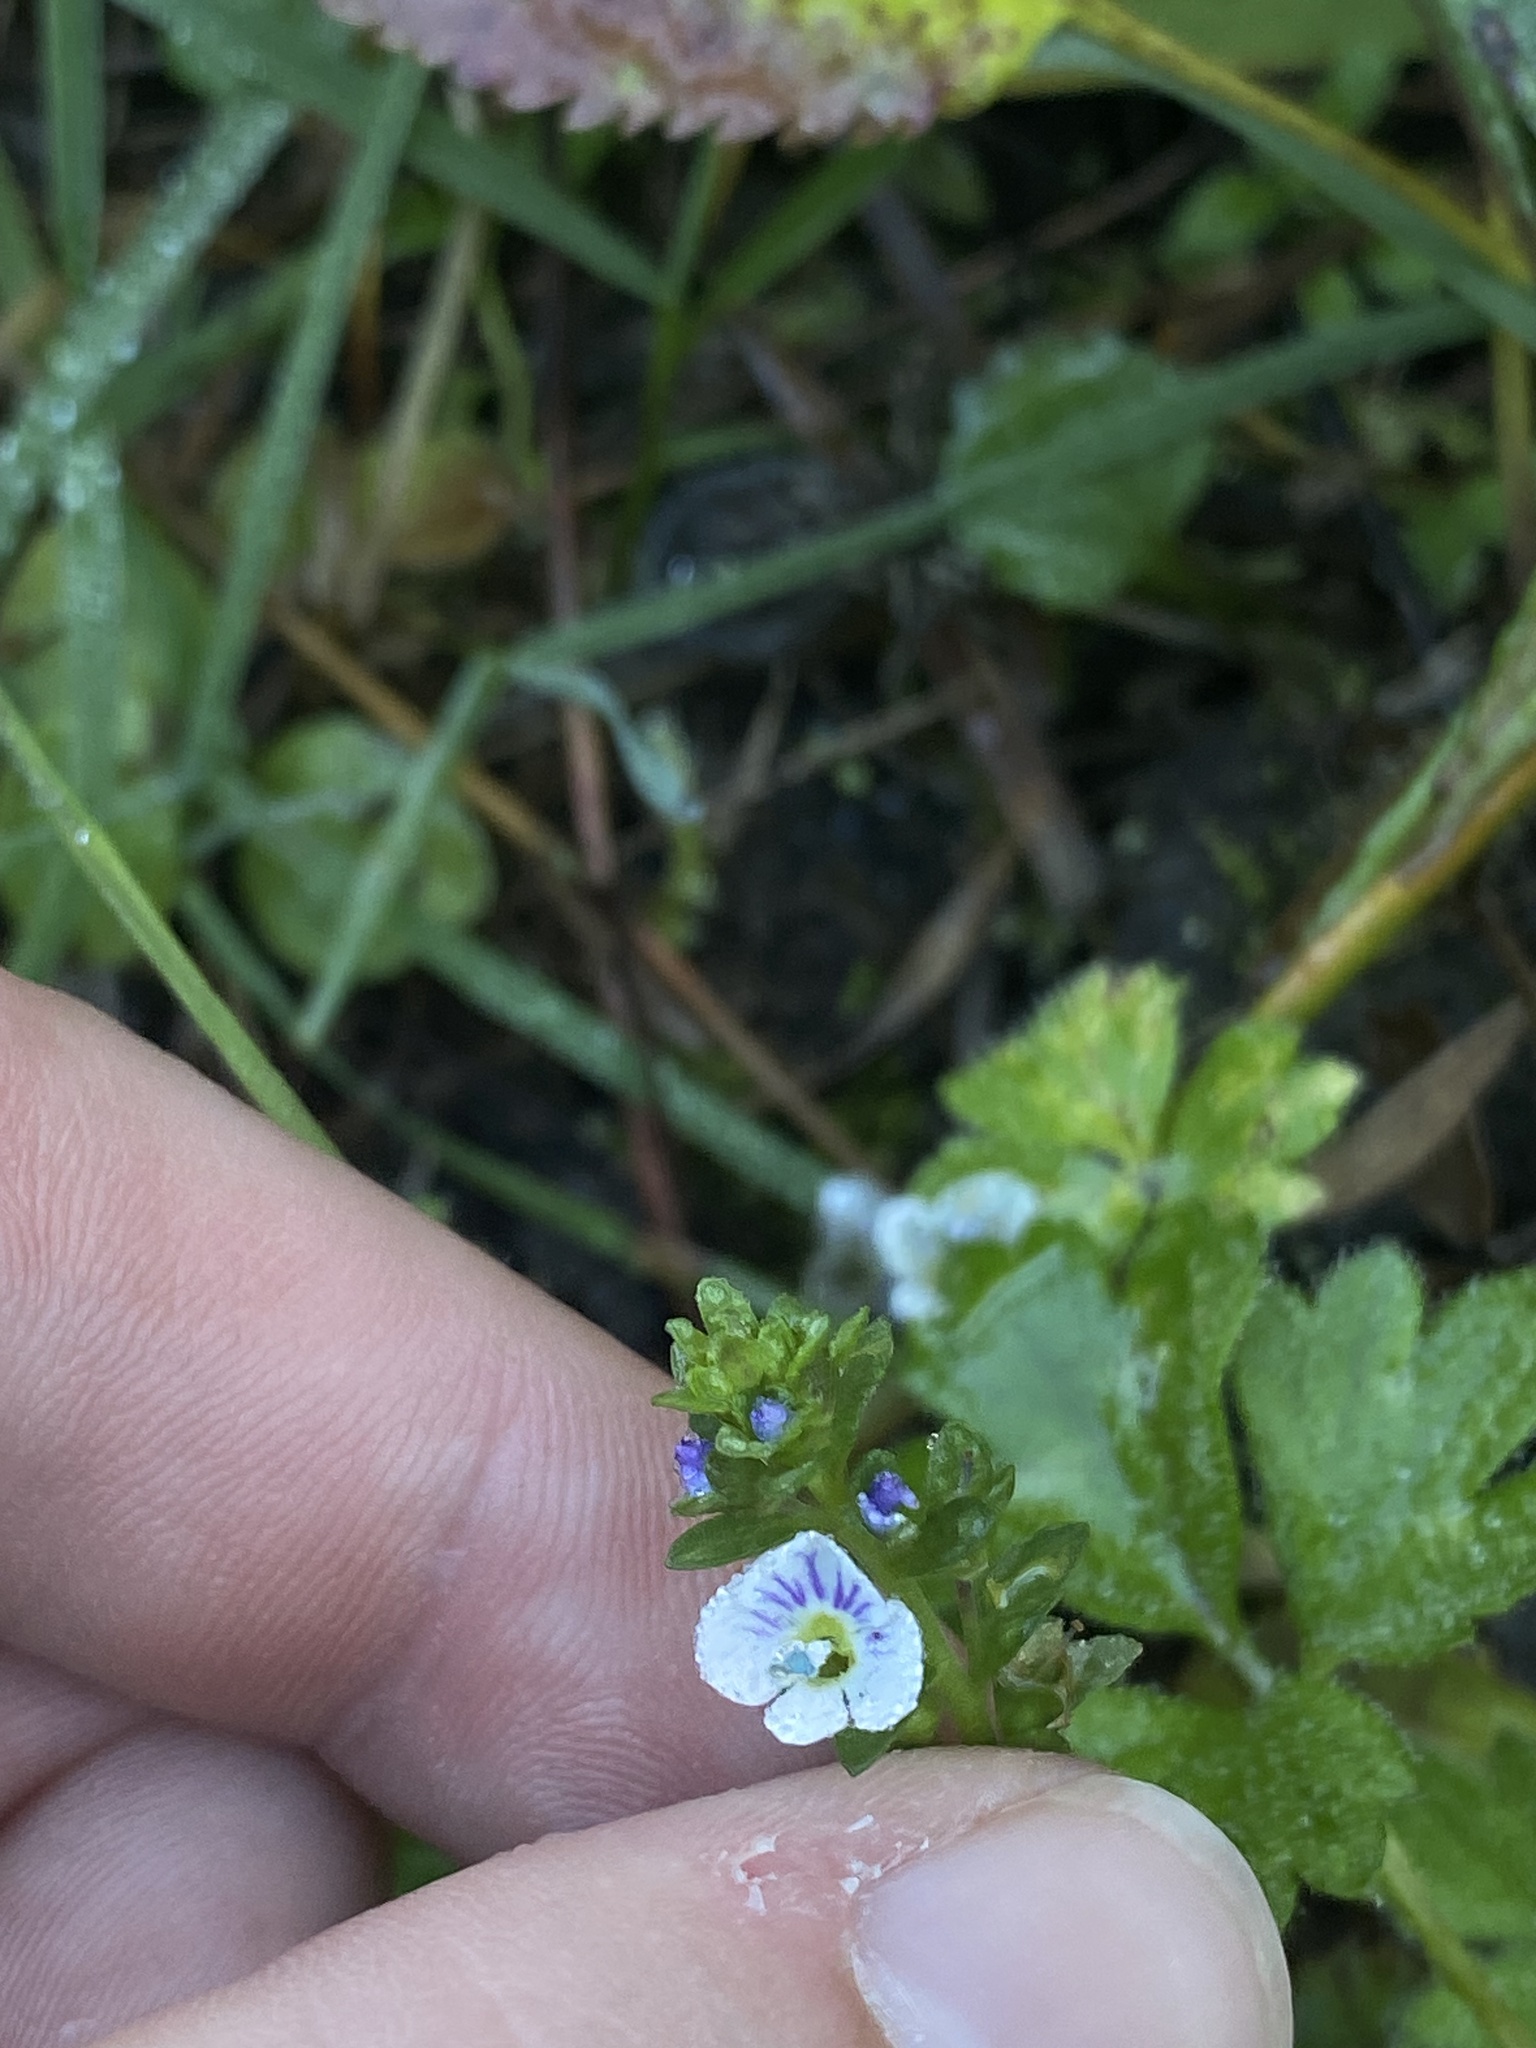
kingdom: Plantae
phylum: Tracheophyta
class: Magnoliopsida
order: Lamiales
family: Plantaginaceae
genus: Veronica
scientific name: Veronica serpyllifolia
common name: Thyme-leaved speedwell
